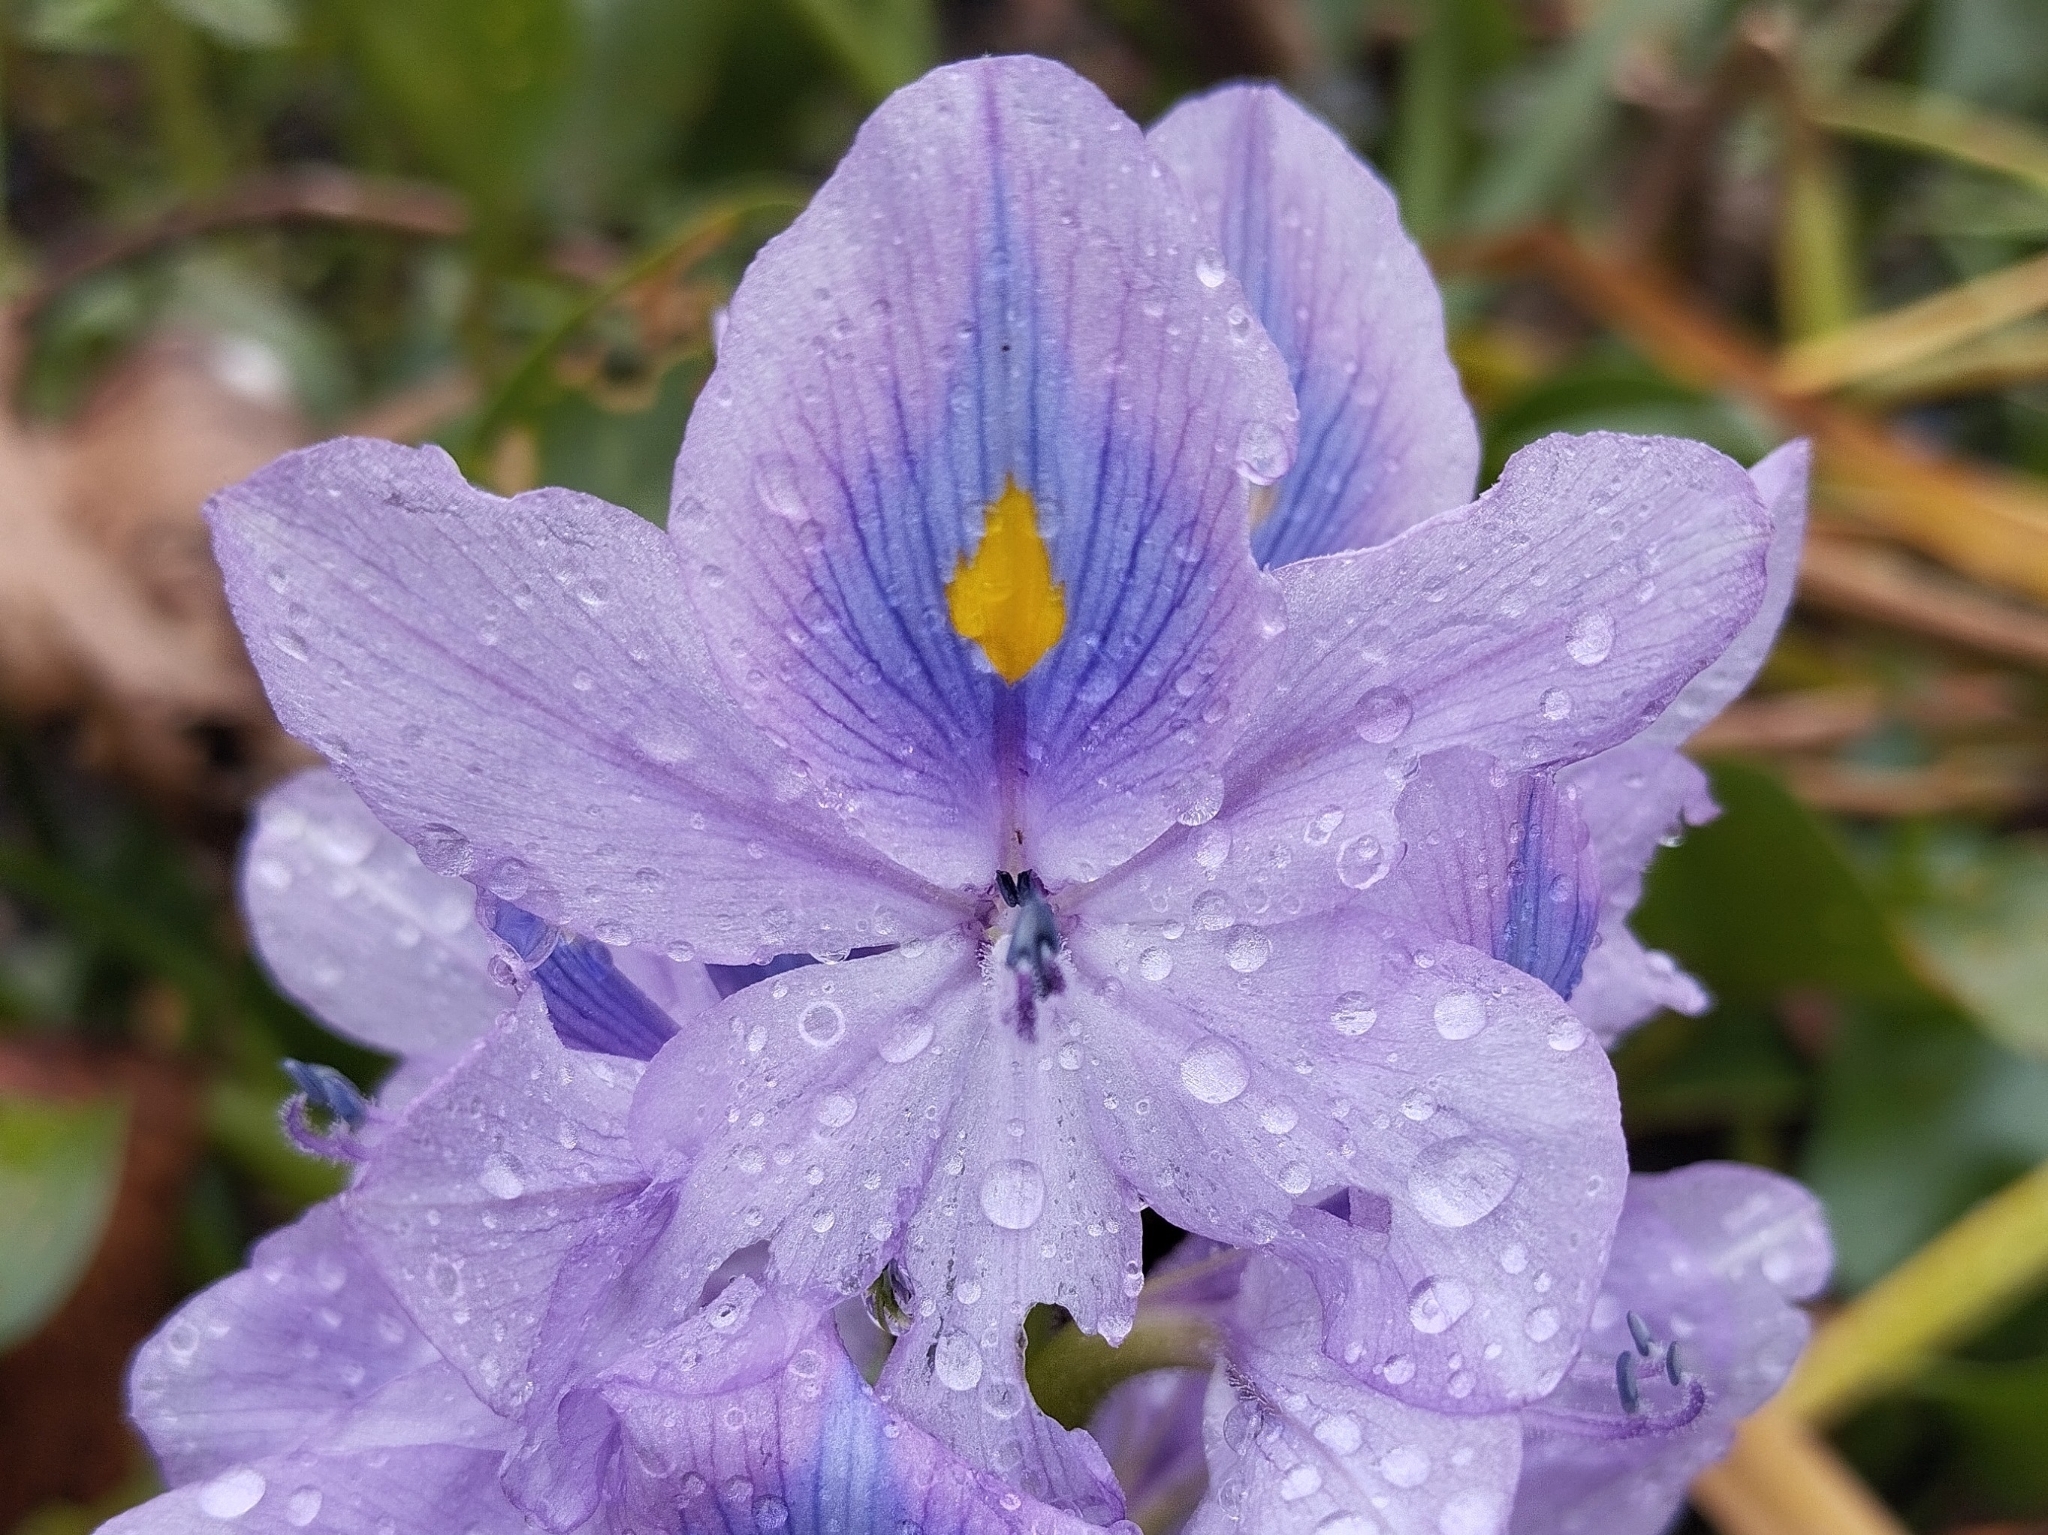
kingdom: Plantae
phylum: Tracheophyta
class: Liliopsida
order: Commelinales
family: Pontederiaceae
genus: Pontederia
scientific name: Pontederia crassipes
